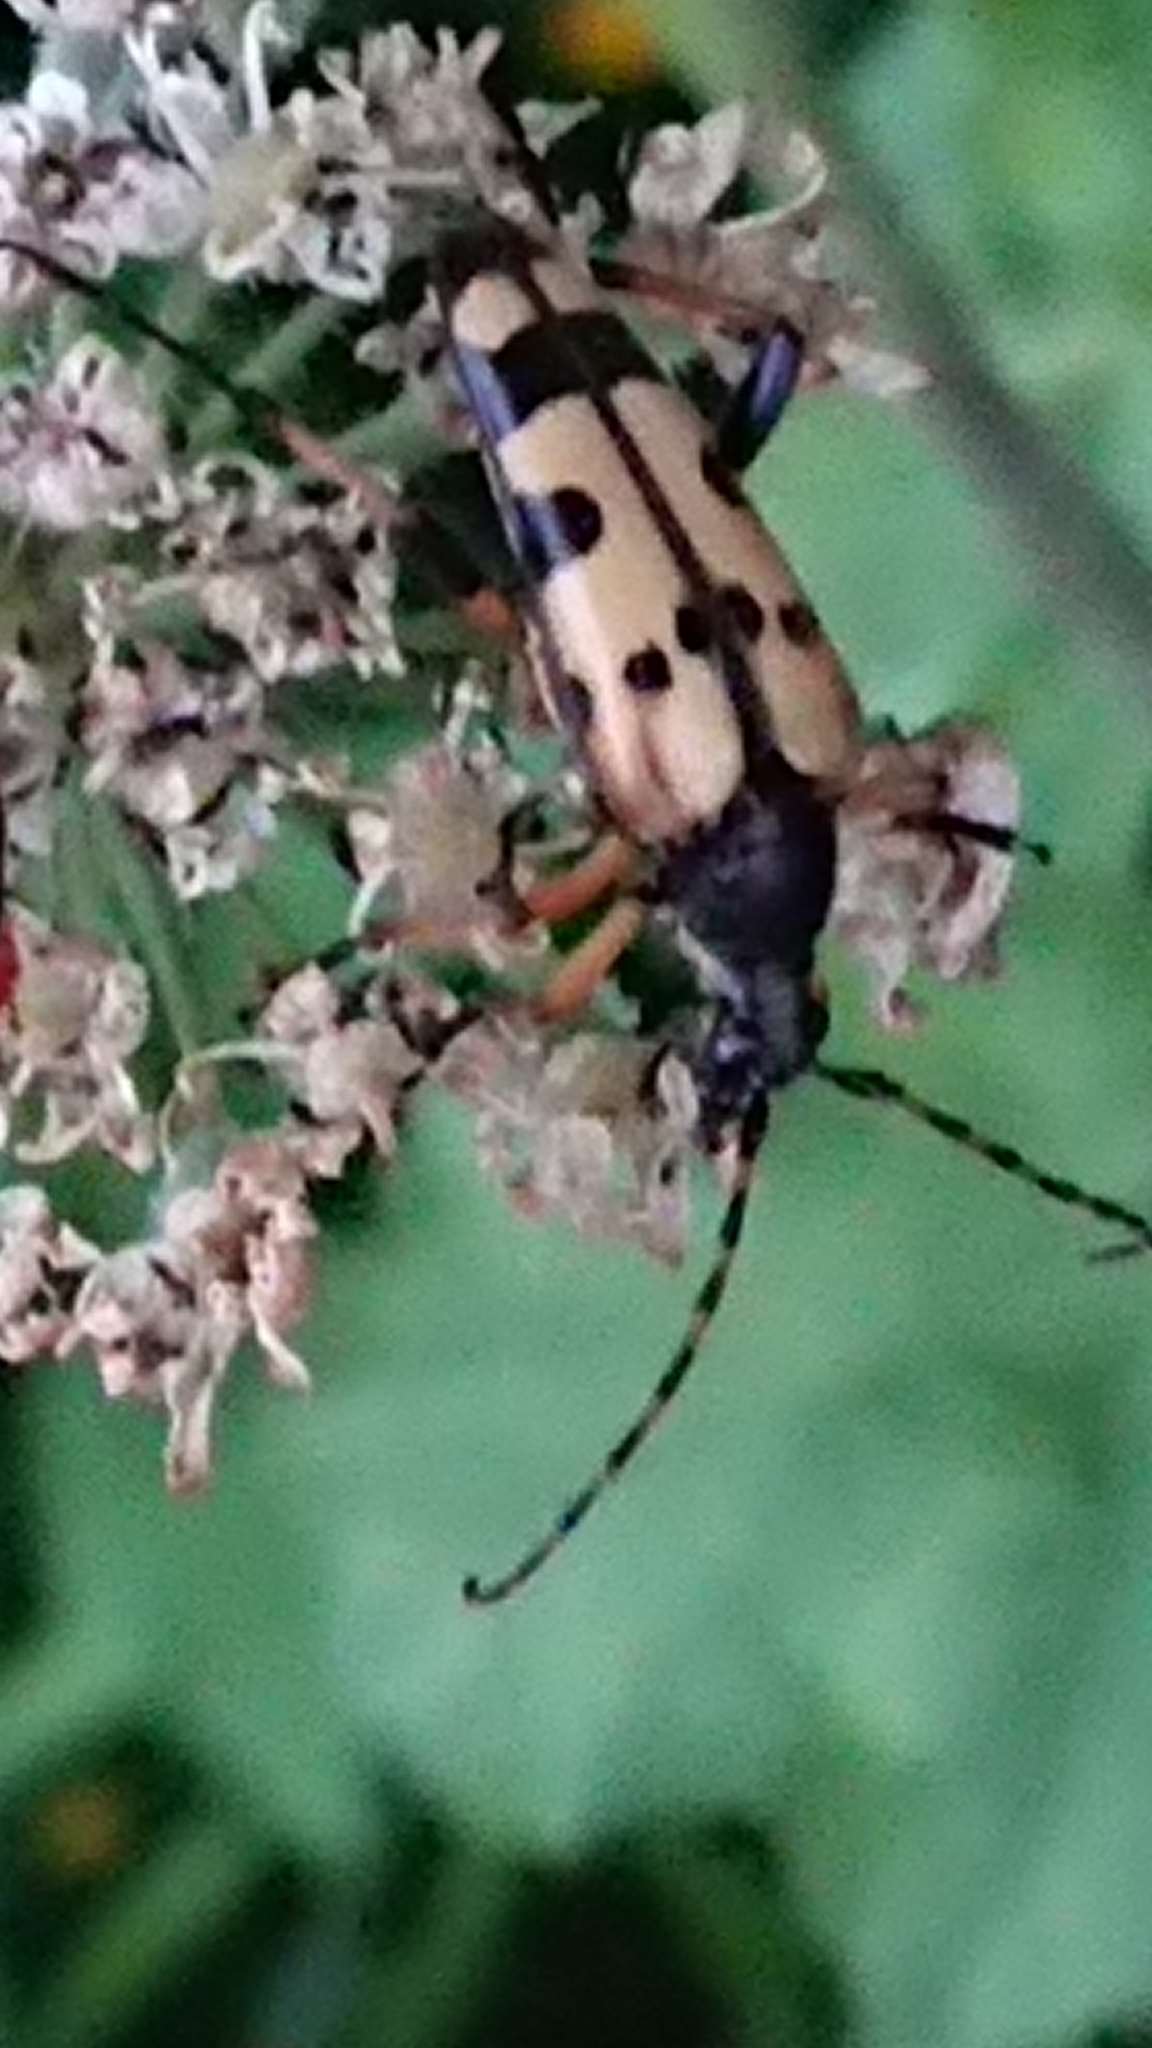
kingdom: Animalia
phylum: Arthropoda
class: Insecta
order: Coleoptera
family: Cerambycidae
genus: Rutpela
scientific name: Rutpela maculata
